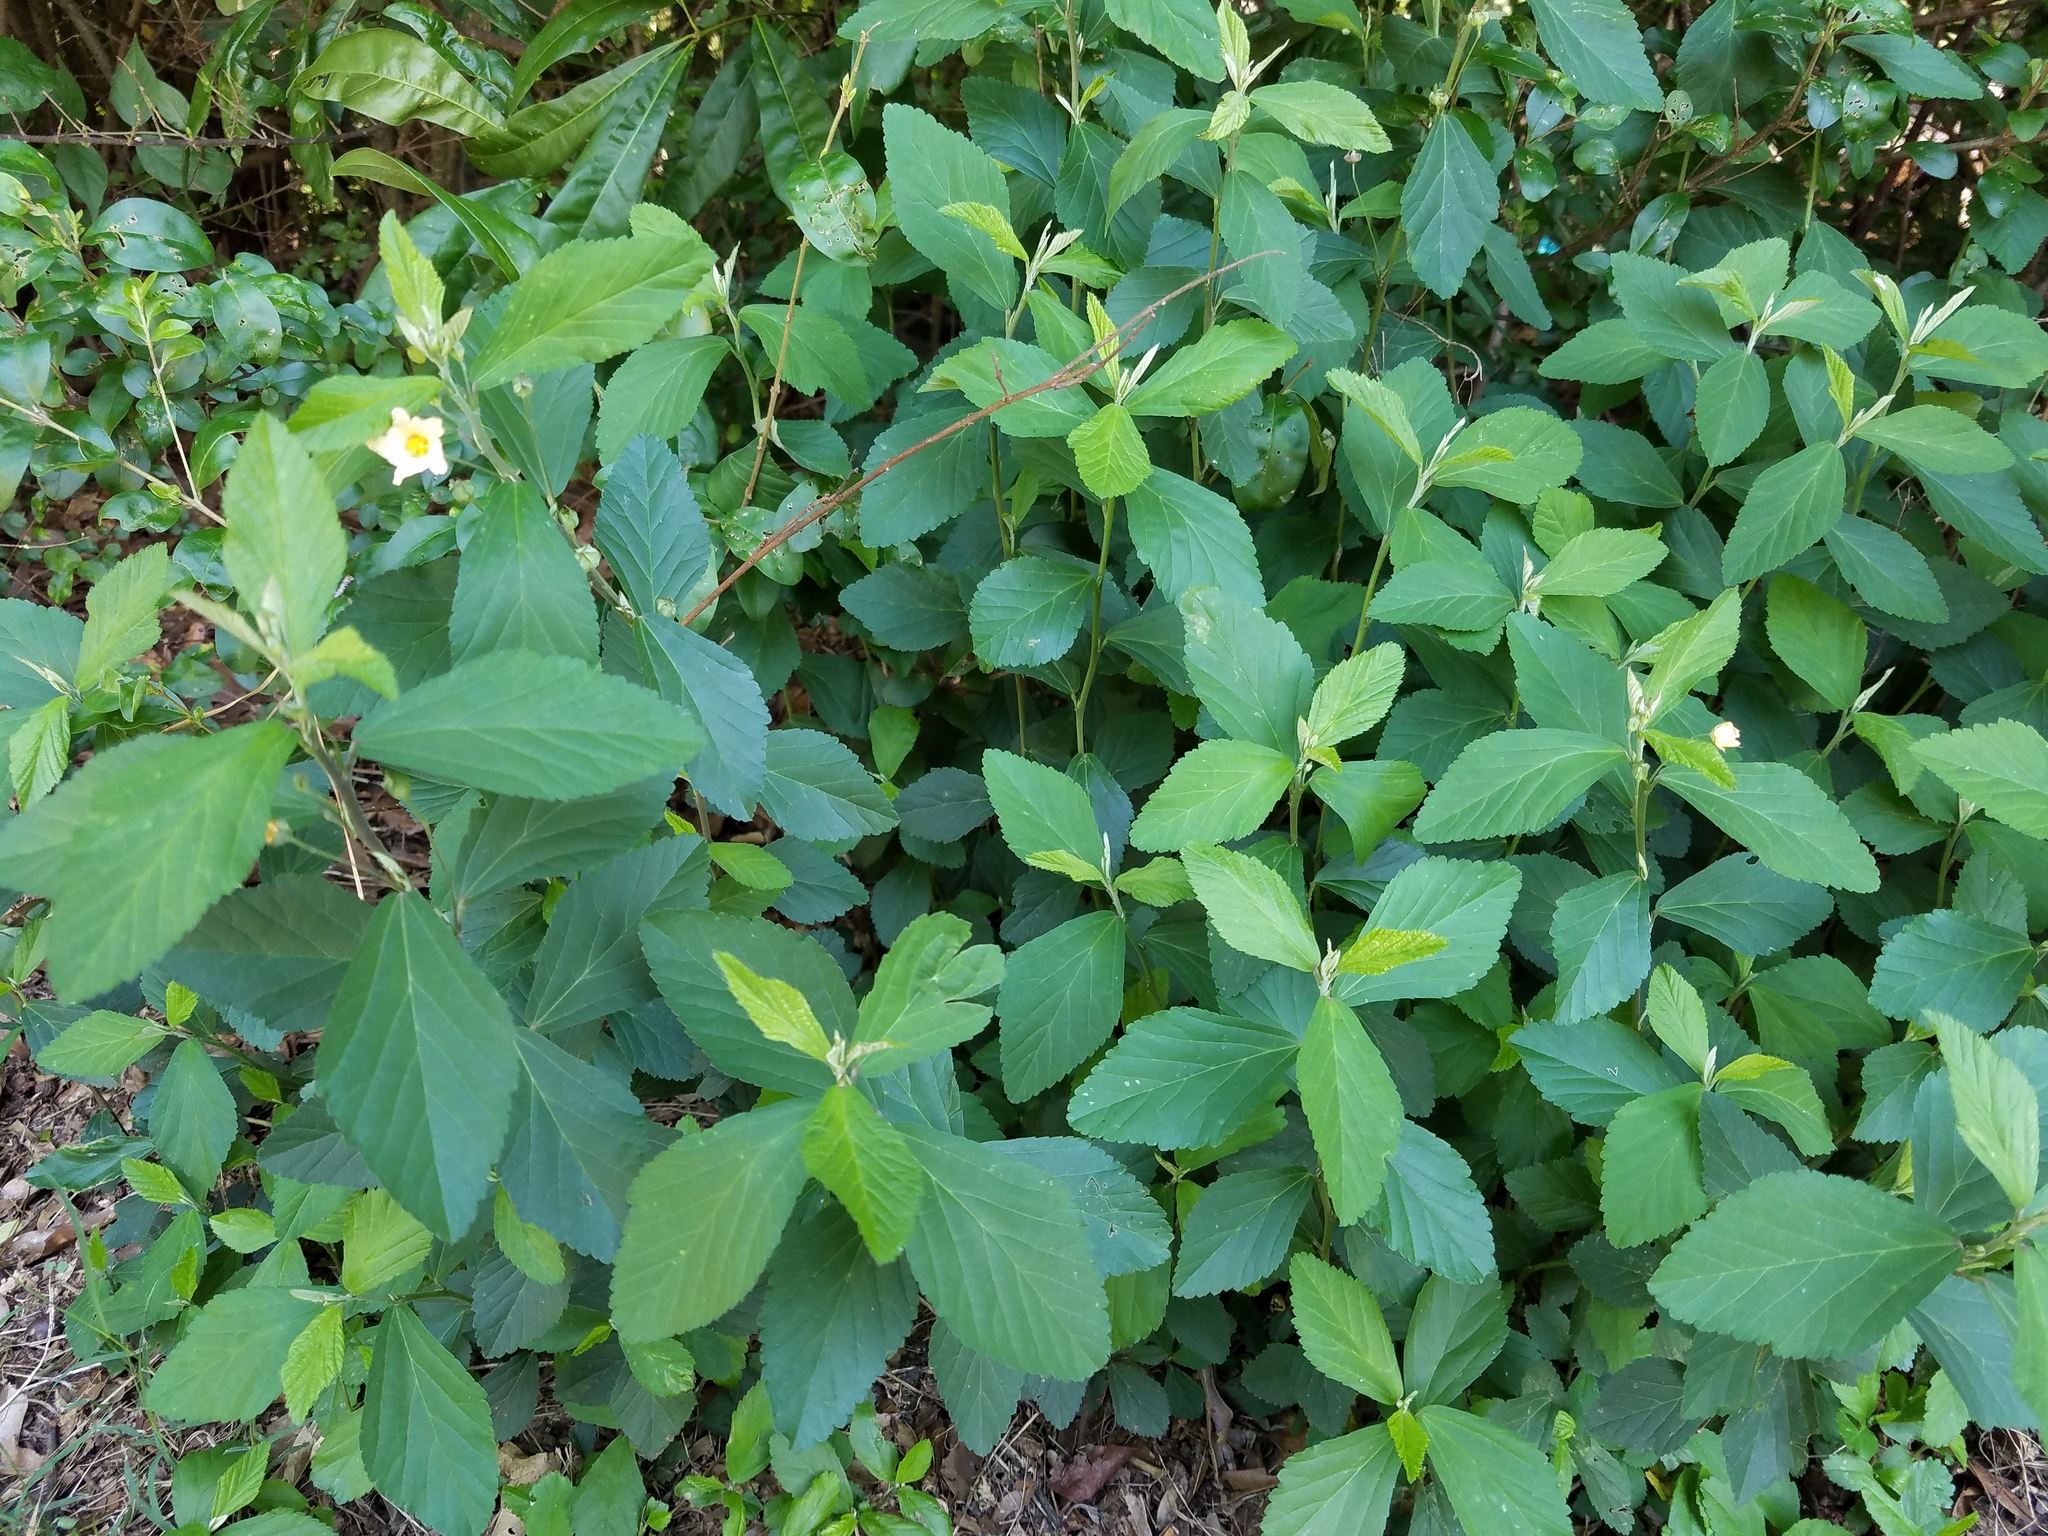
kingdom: Plantae
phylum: Tracheophyta
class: Magnoliopsida
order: Malvales
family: Malvaceae
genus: Sida
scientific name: Sida rhombifolia
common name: Queensland-hemp
